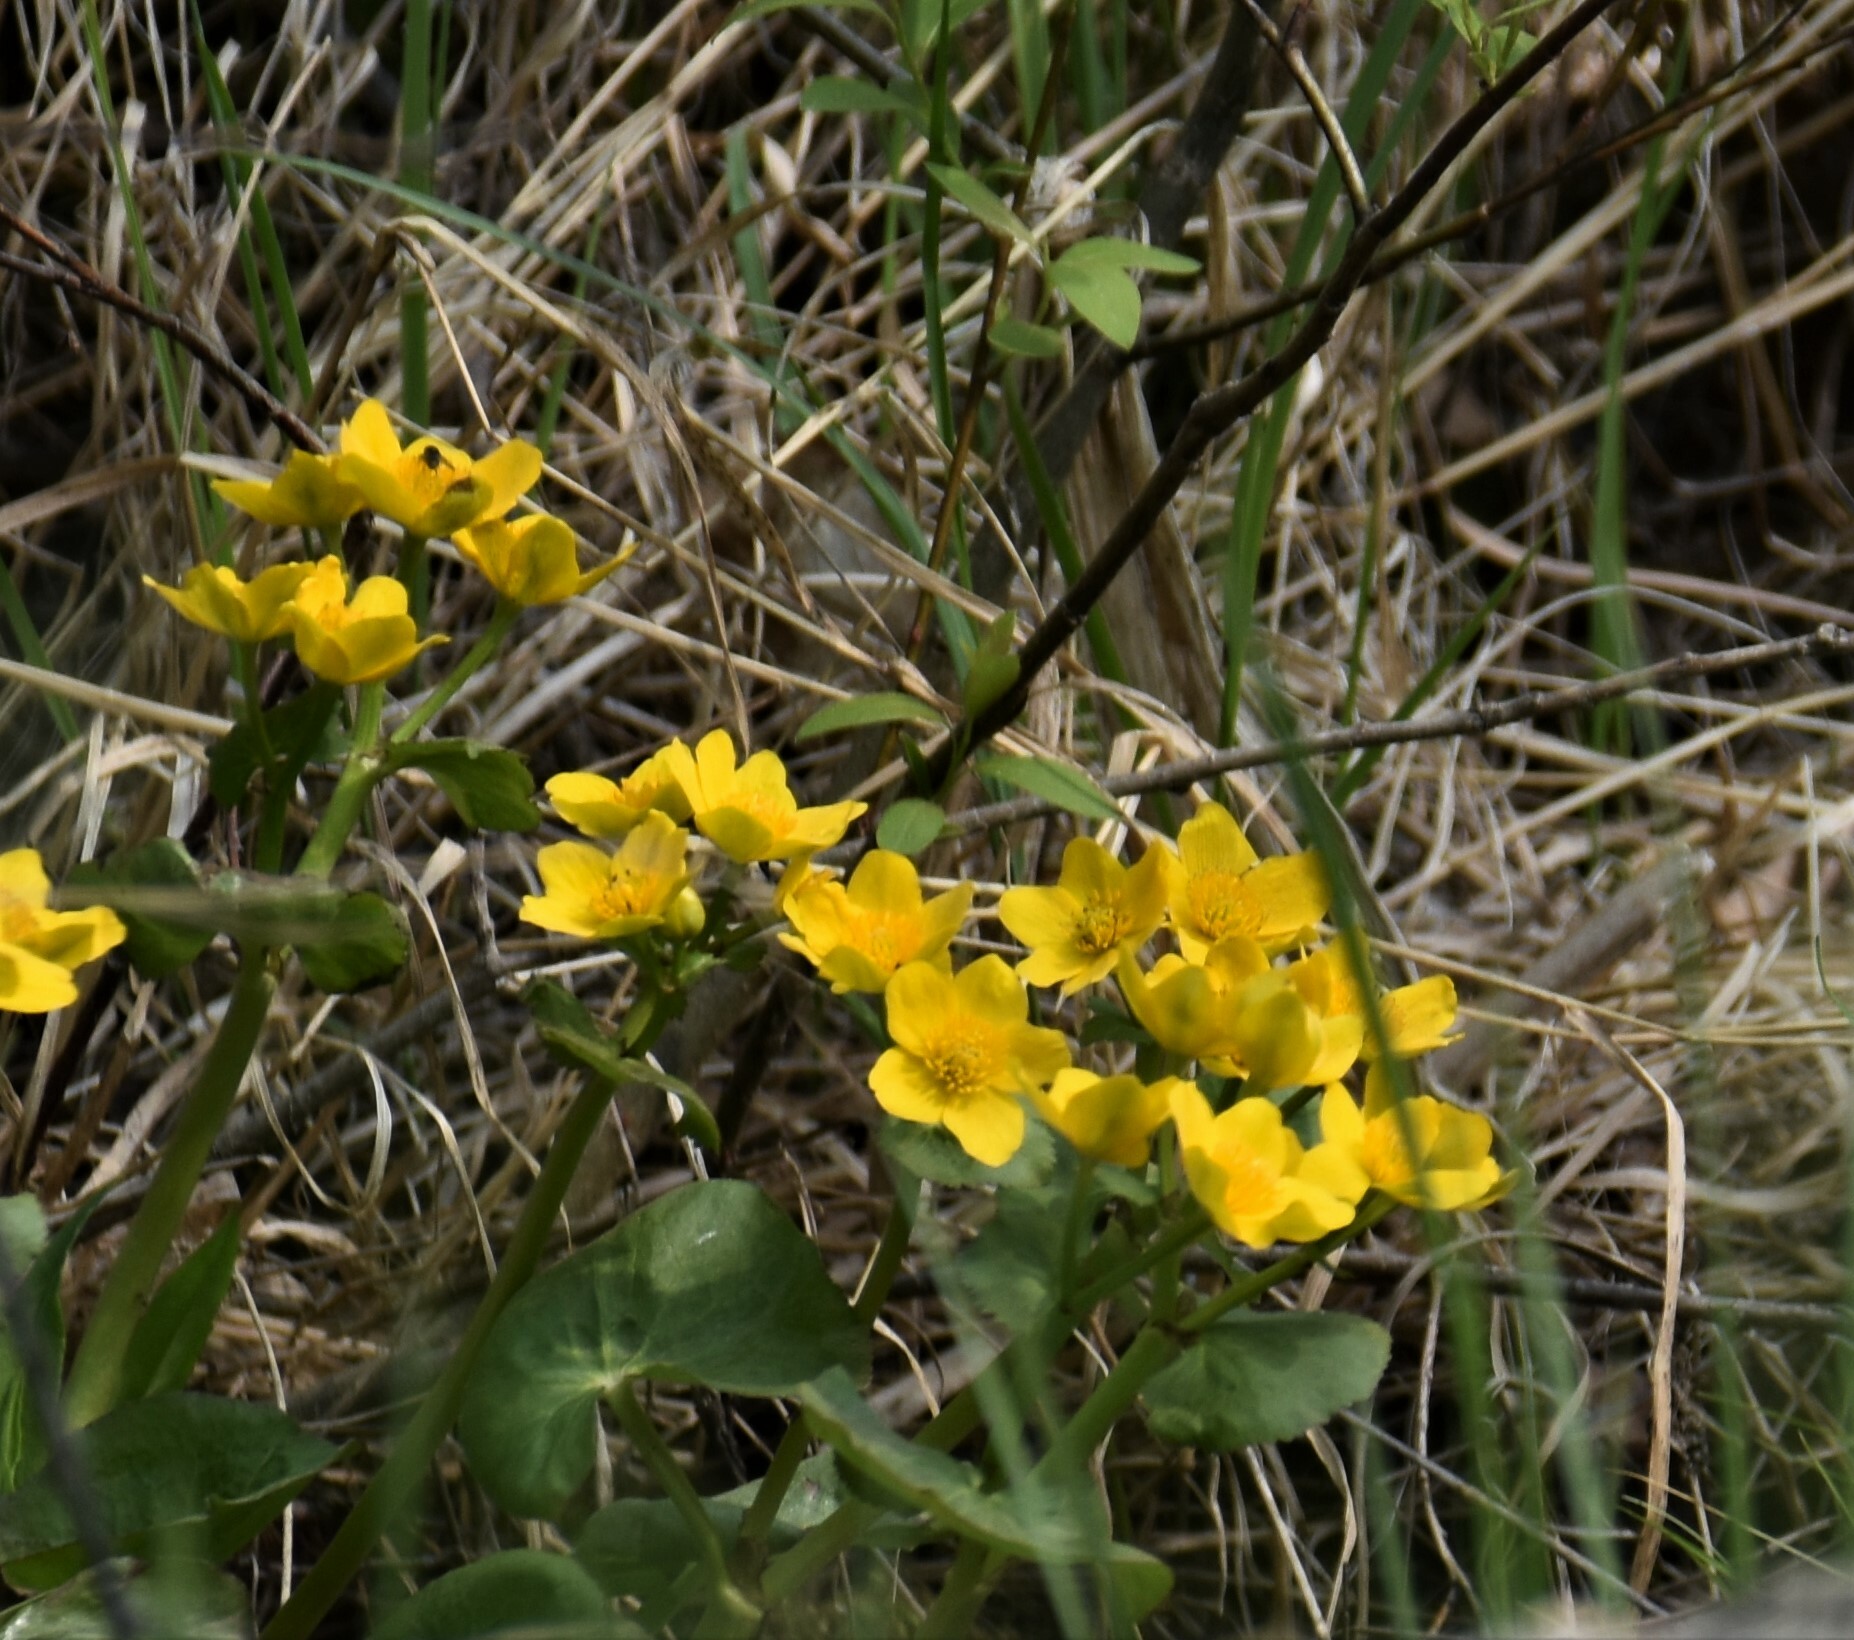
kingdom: Plantae
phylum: Tracheophyta
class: Magnoliopsida
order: Ranunculales
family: Ranunculaceae
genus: Caltha
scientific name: Caltha palustris
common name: Marsh marigold
